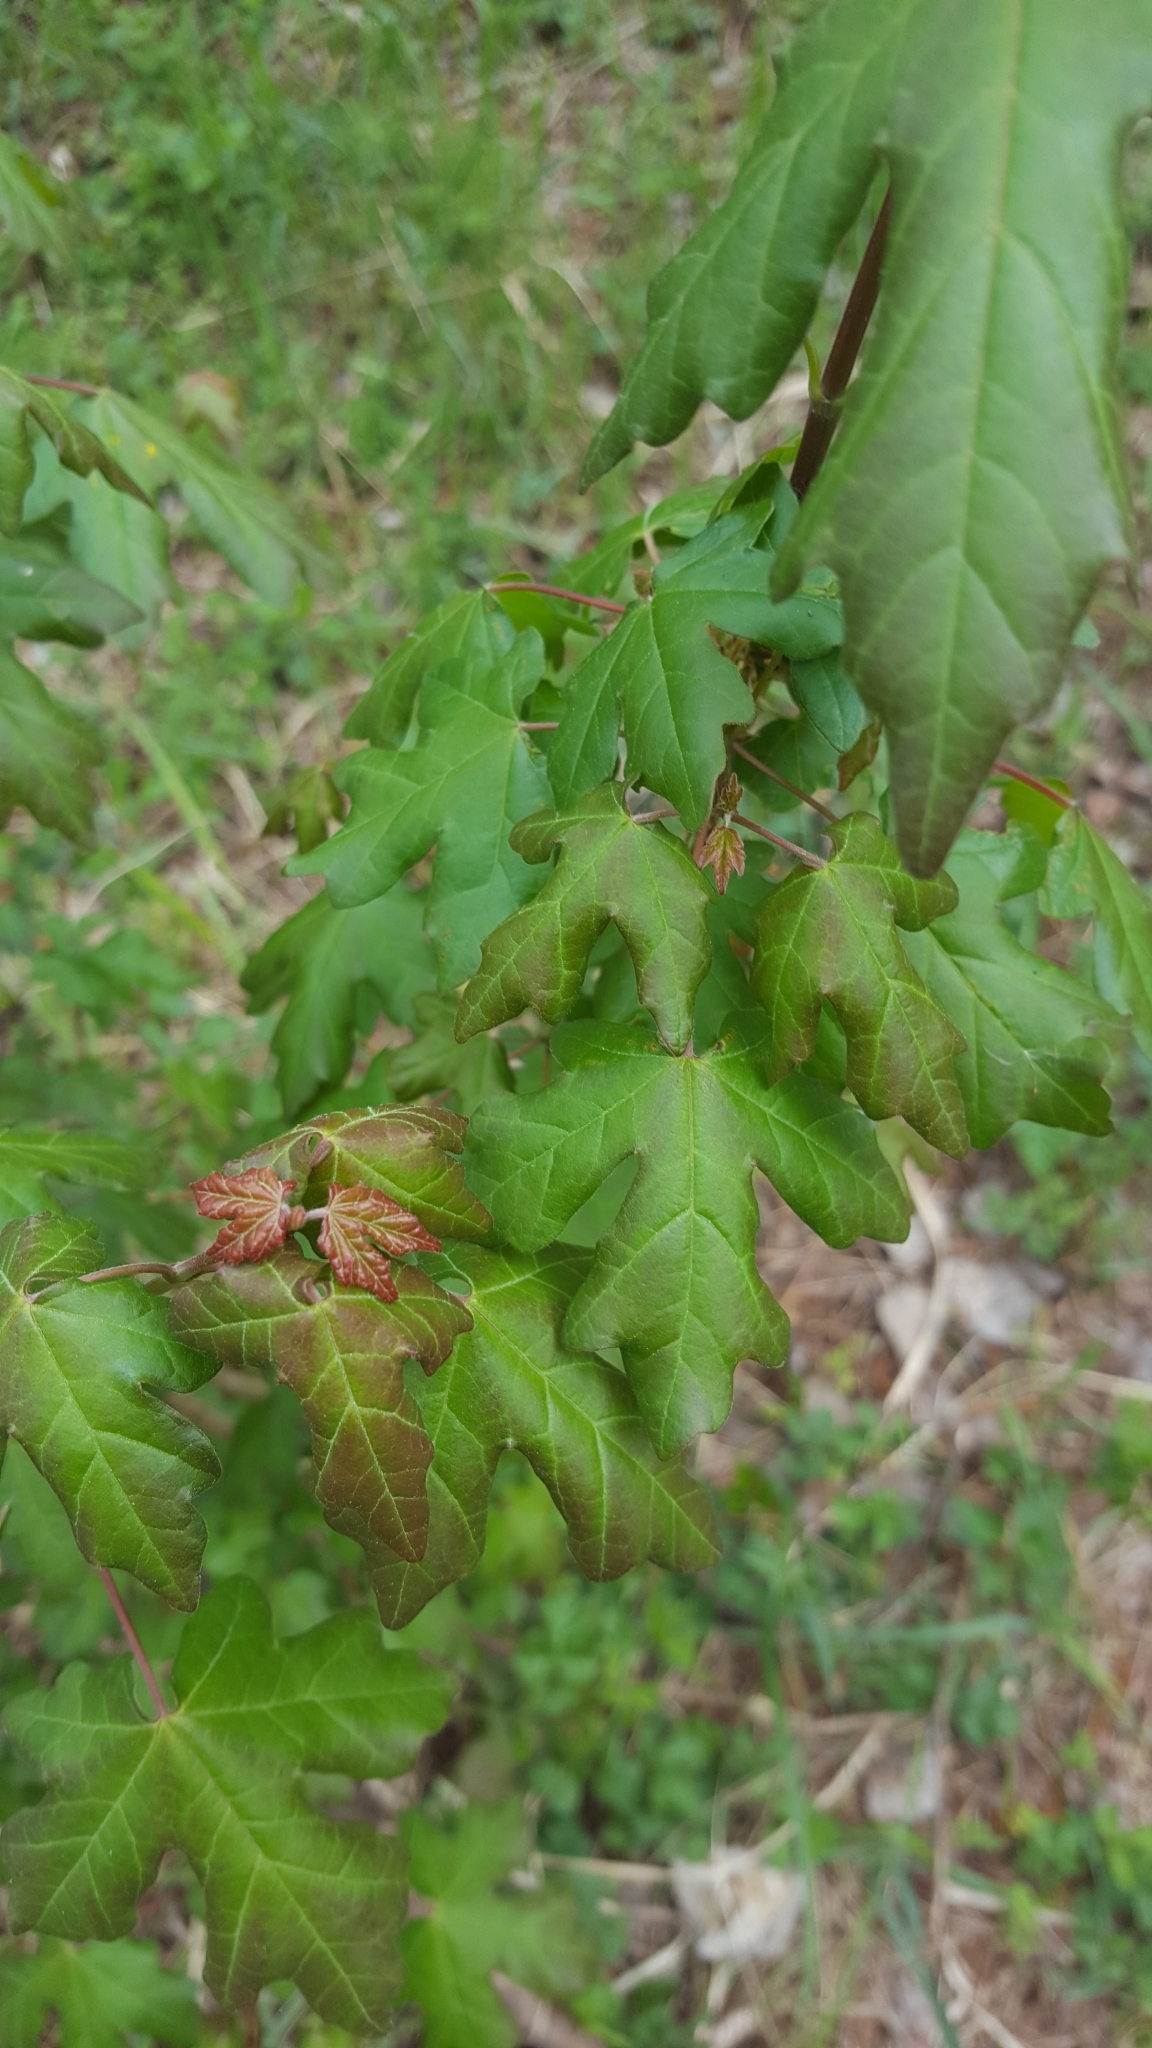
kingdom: Plantae
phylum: Tracheophyta
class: Magnoliopsida
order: Sapindales
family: Sapindaceae
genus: Acer
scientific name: Acer campestre
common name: Field maple
